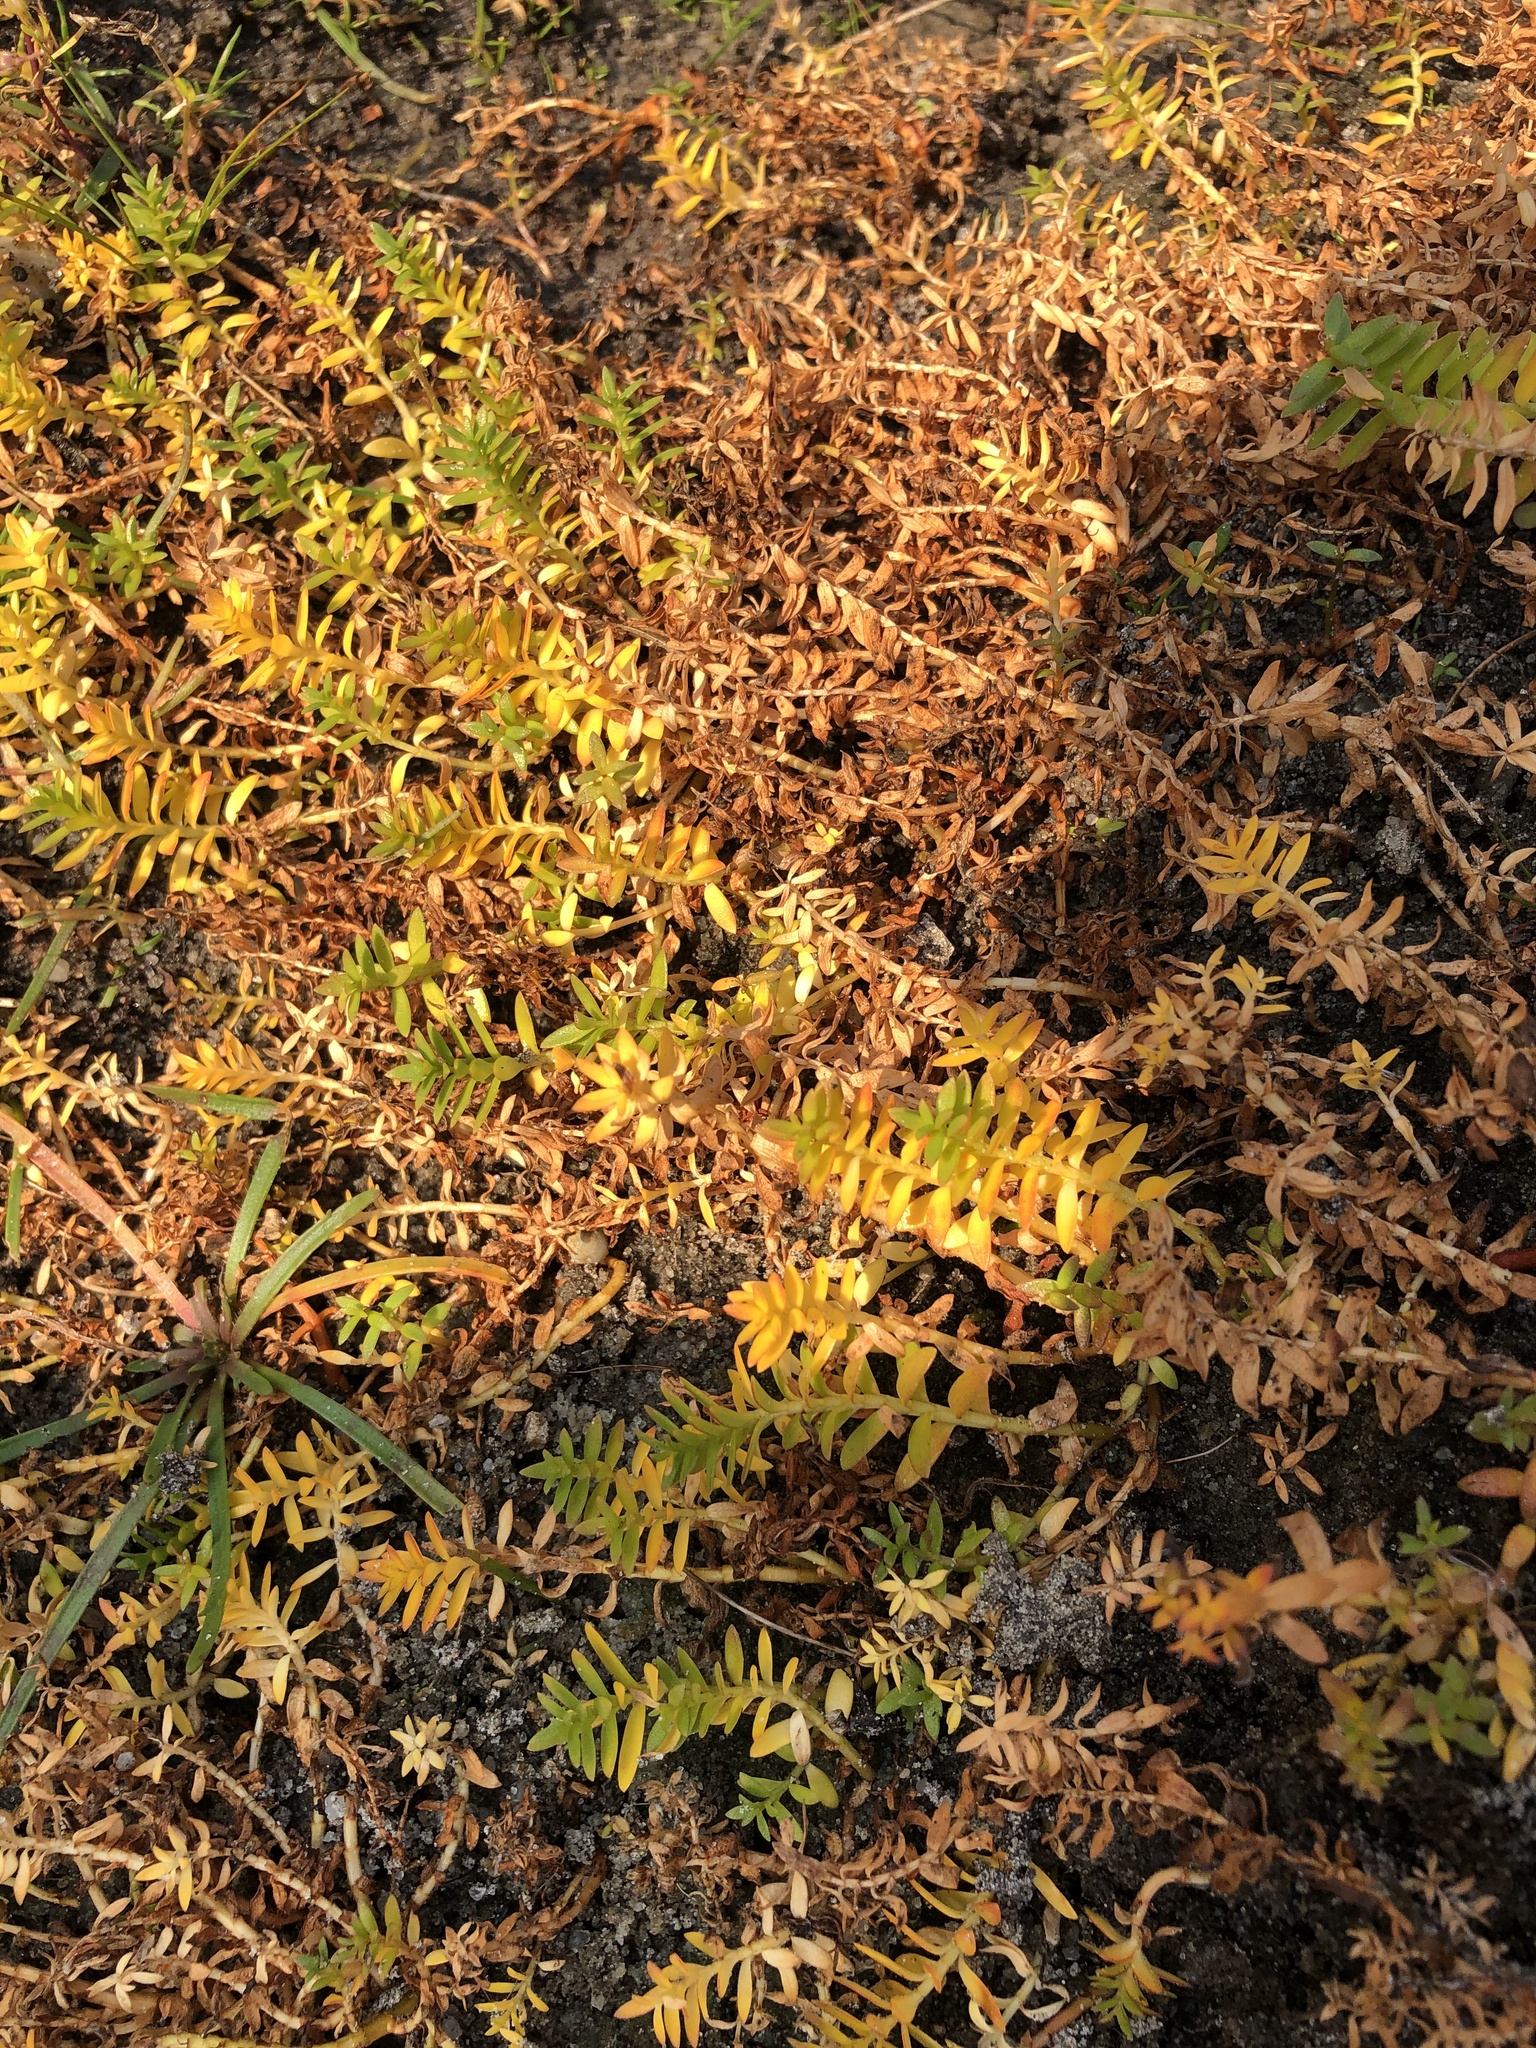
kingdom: Plantae
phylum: Tracheophyta
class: Magnoliopsida
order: Caryophyllales
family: Caryophyllaceae
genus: Honckenya
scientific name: Honckenya peploides
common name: Sea sandwort
